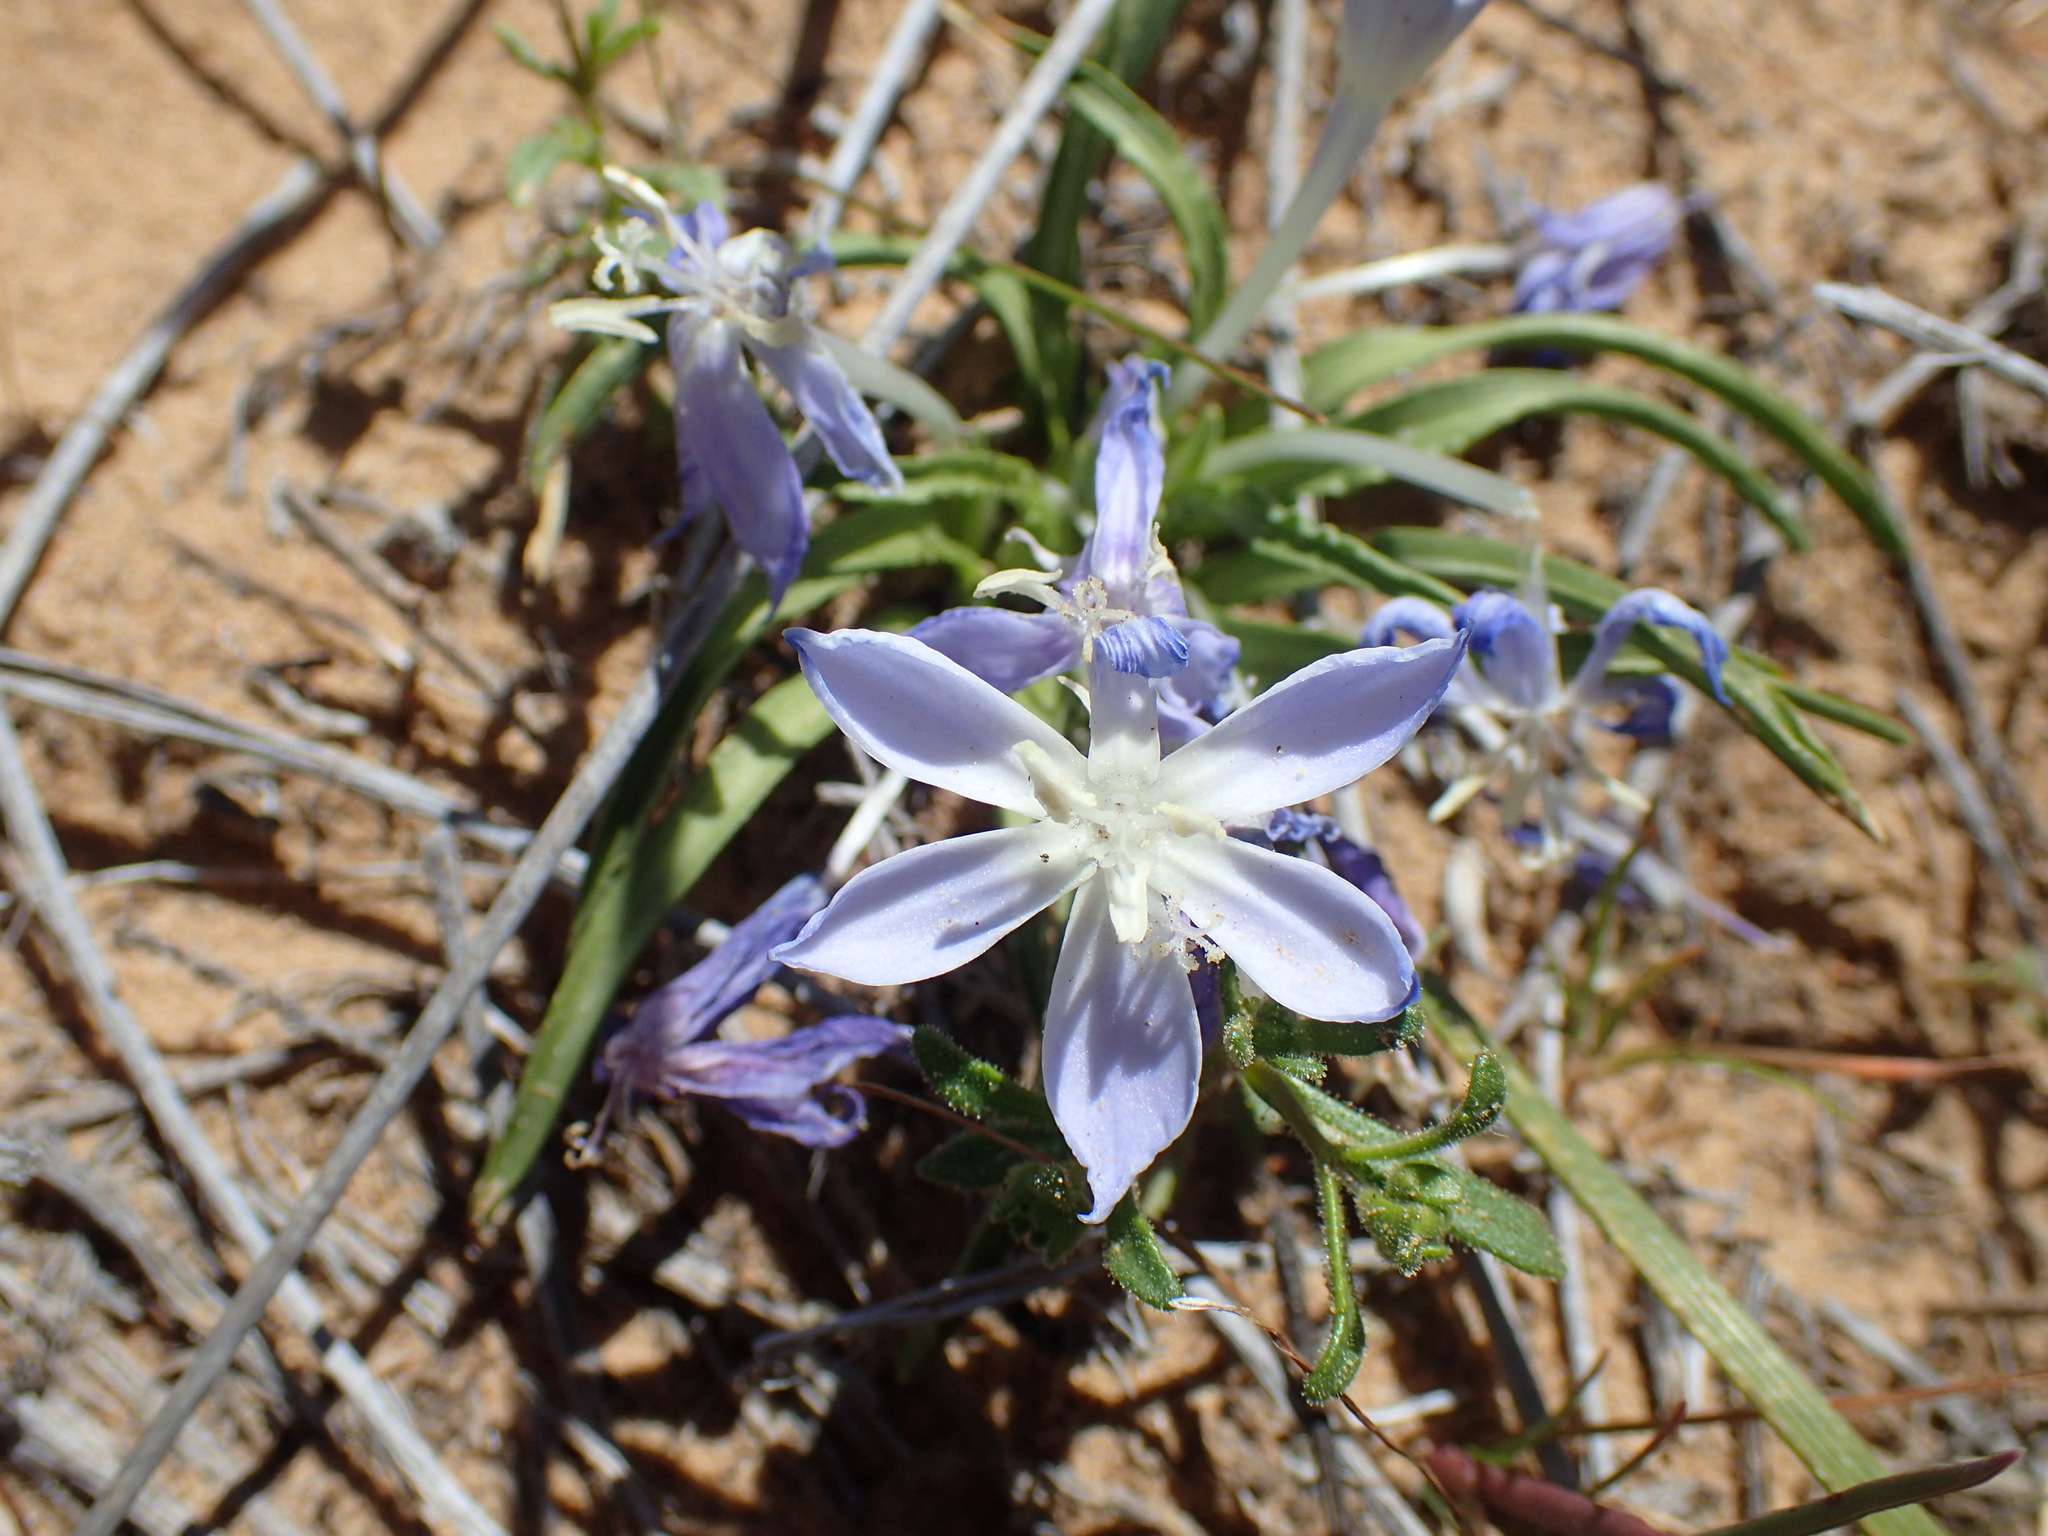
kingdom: Plantae
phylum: Tracheophyta
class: Liliopsida
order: Asparagales
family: Iridaceae
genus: Lapeirousia
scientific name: Lapeirousia montana
